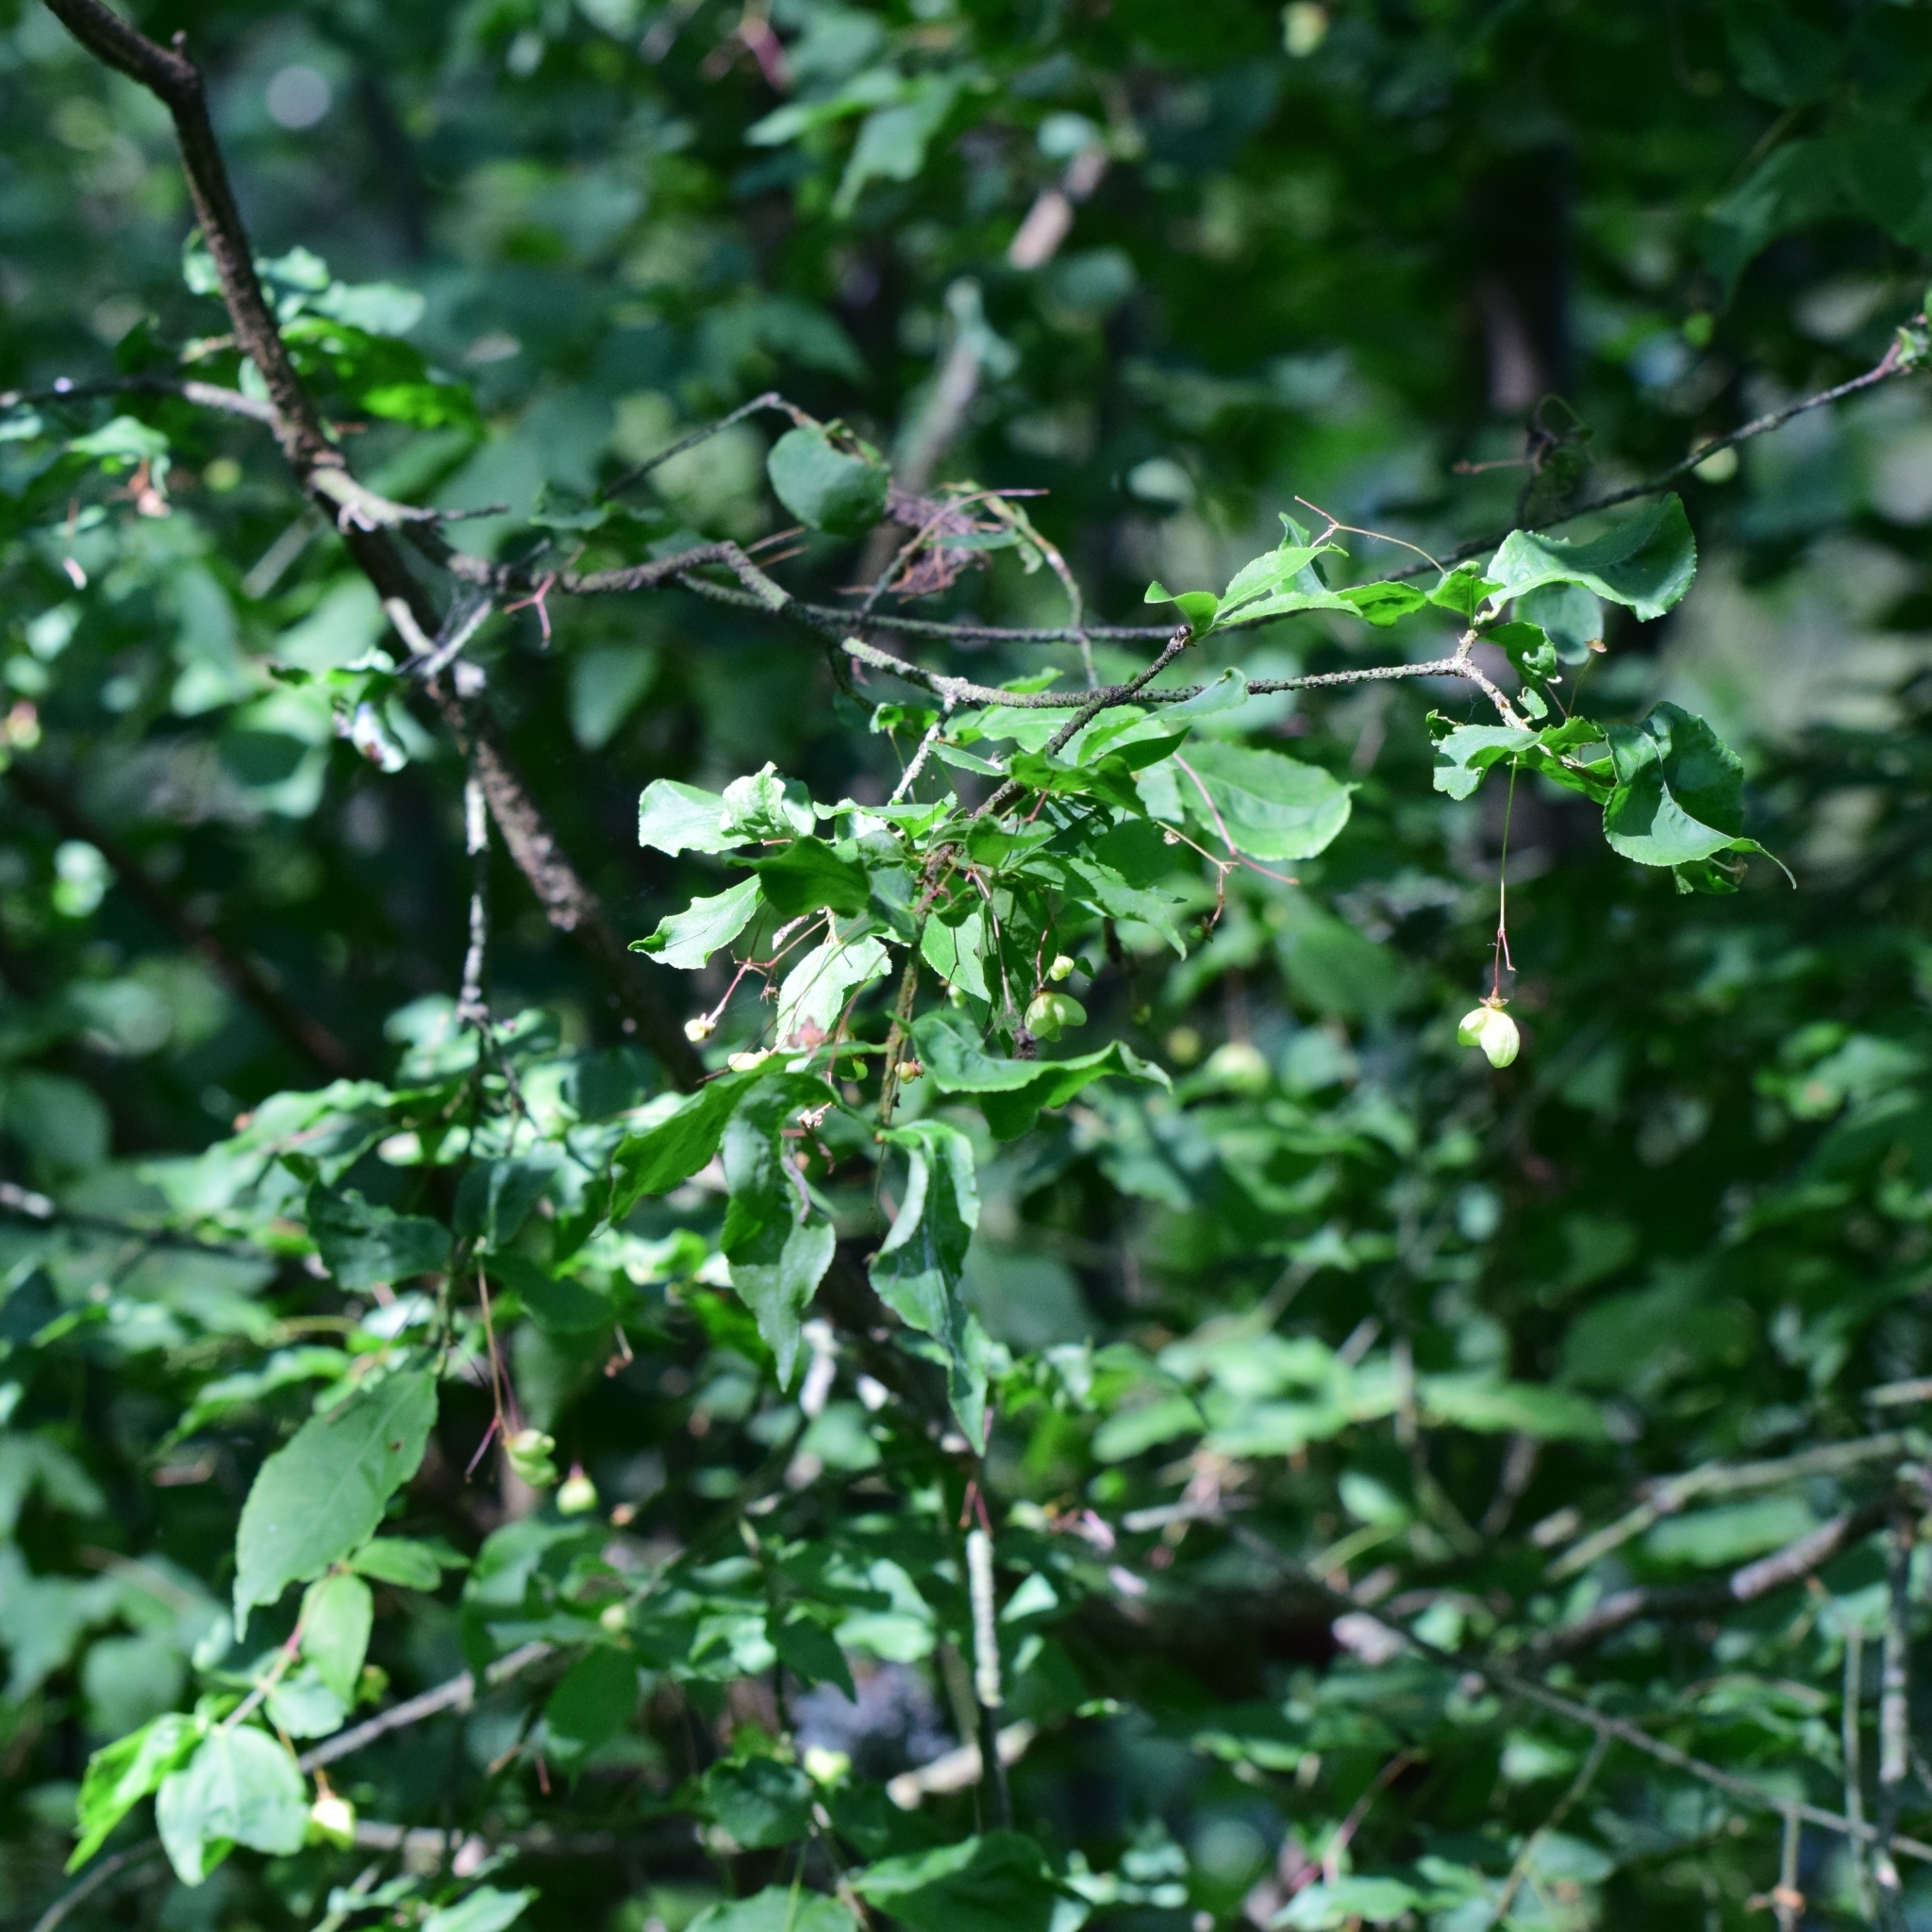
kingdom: Plantae
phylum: Tracheophyta
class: Magnoliopsida
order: Celastrales
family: Celastraceae
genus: Euonymus
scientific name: Euonymus verrucosus
